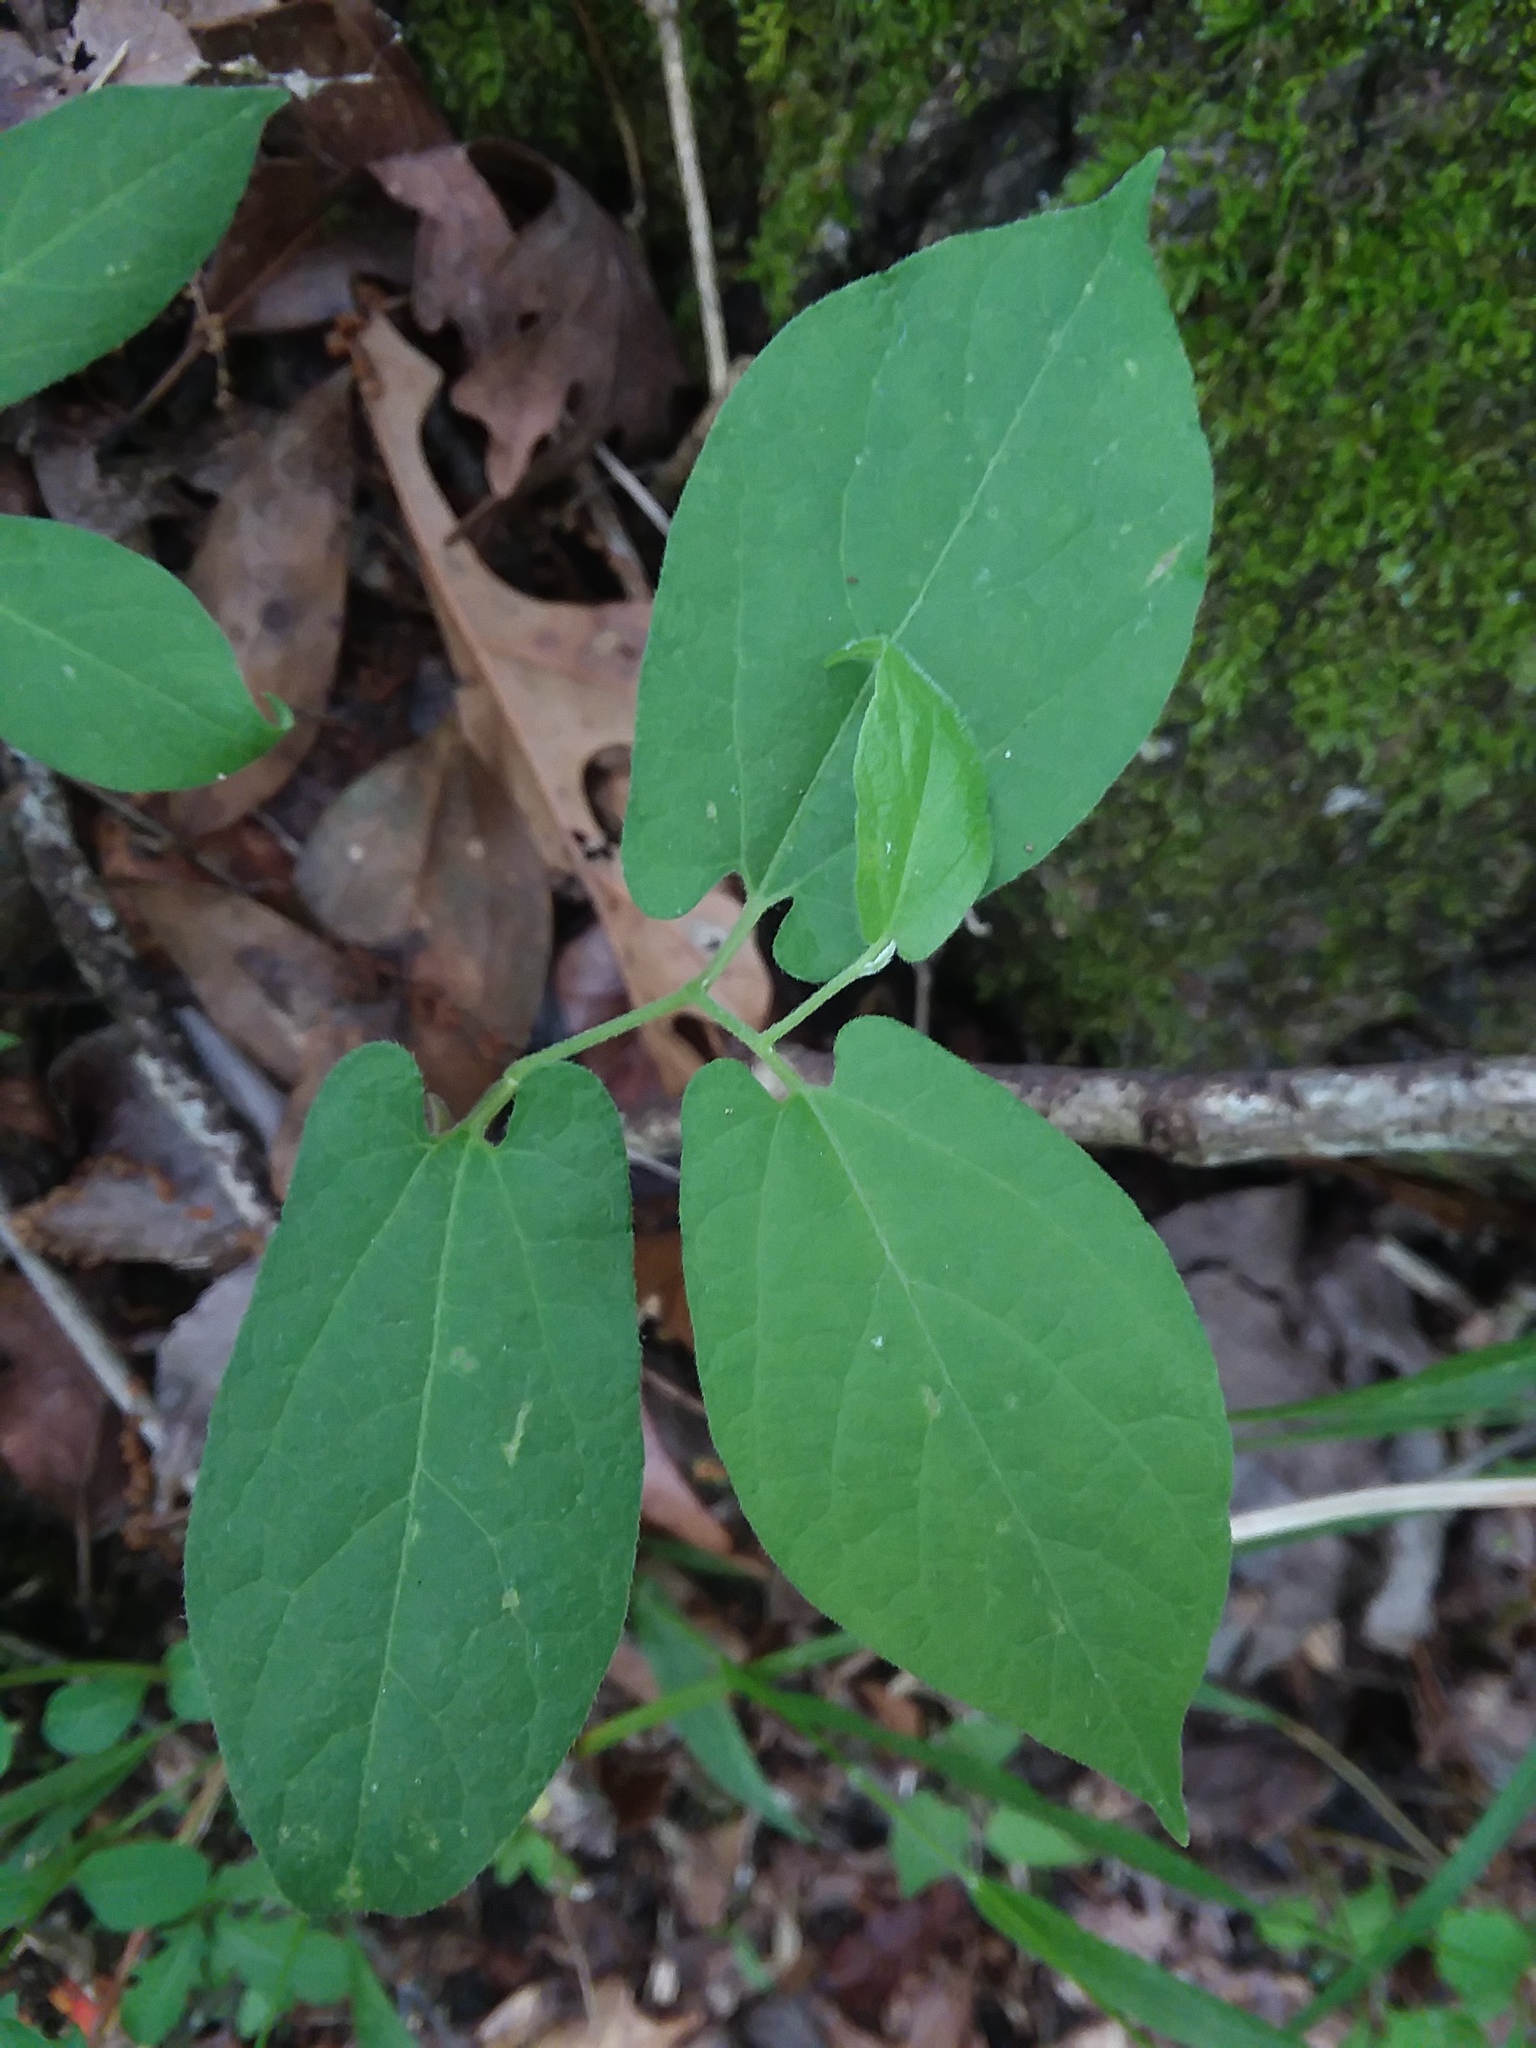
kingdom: Plantae
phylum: Tracheophyta
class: Magnoliopsida
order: Piperales
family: Aristolochiaceae
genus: Endodeca
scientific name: Endodeca serpentaria
